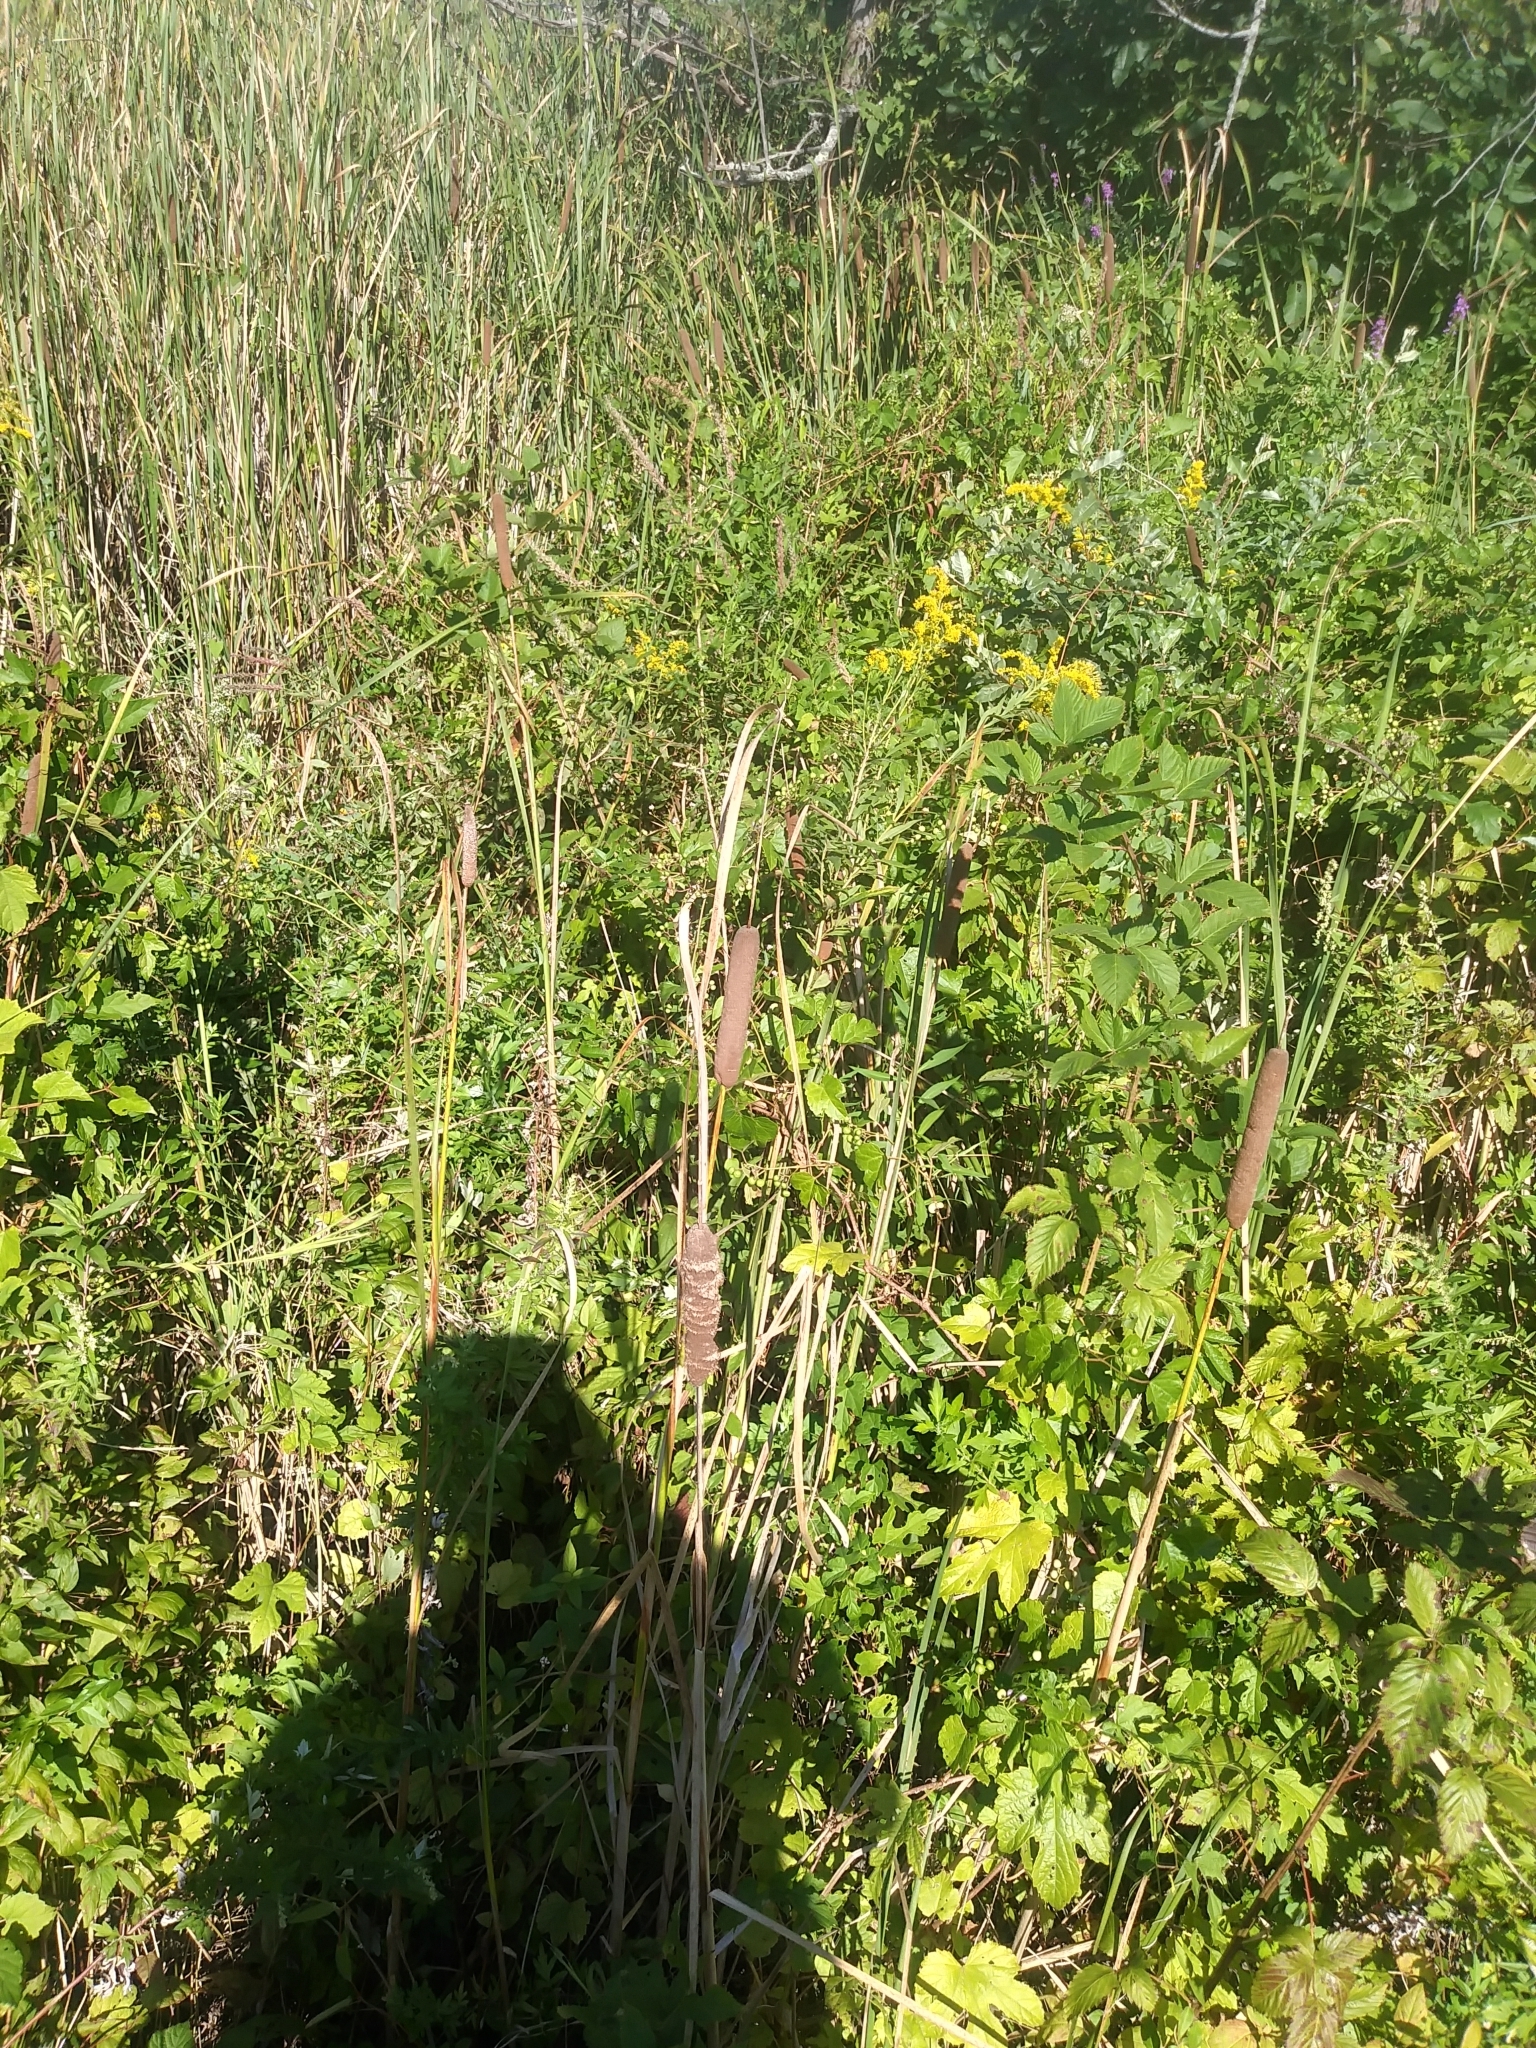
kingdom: Plantae
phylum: Tracheophyta
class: Liliopsida
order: Poales
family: Typhaceae
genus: Typha
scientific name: Typha angustifolia
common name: Lesser bulrush
